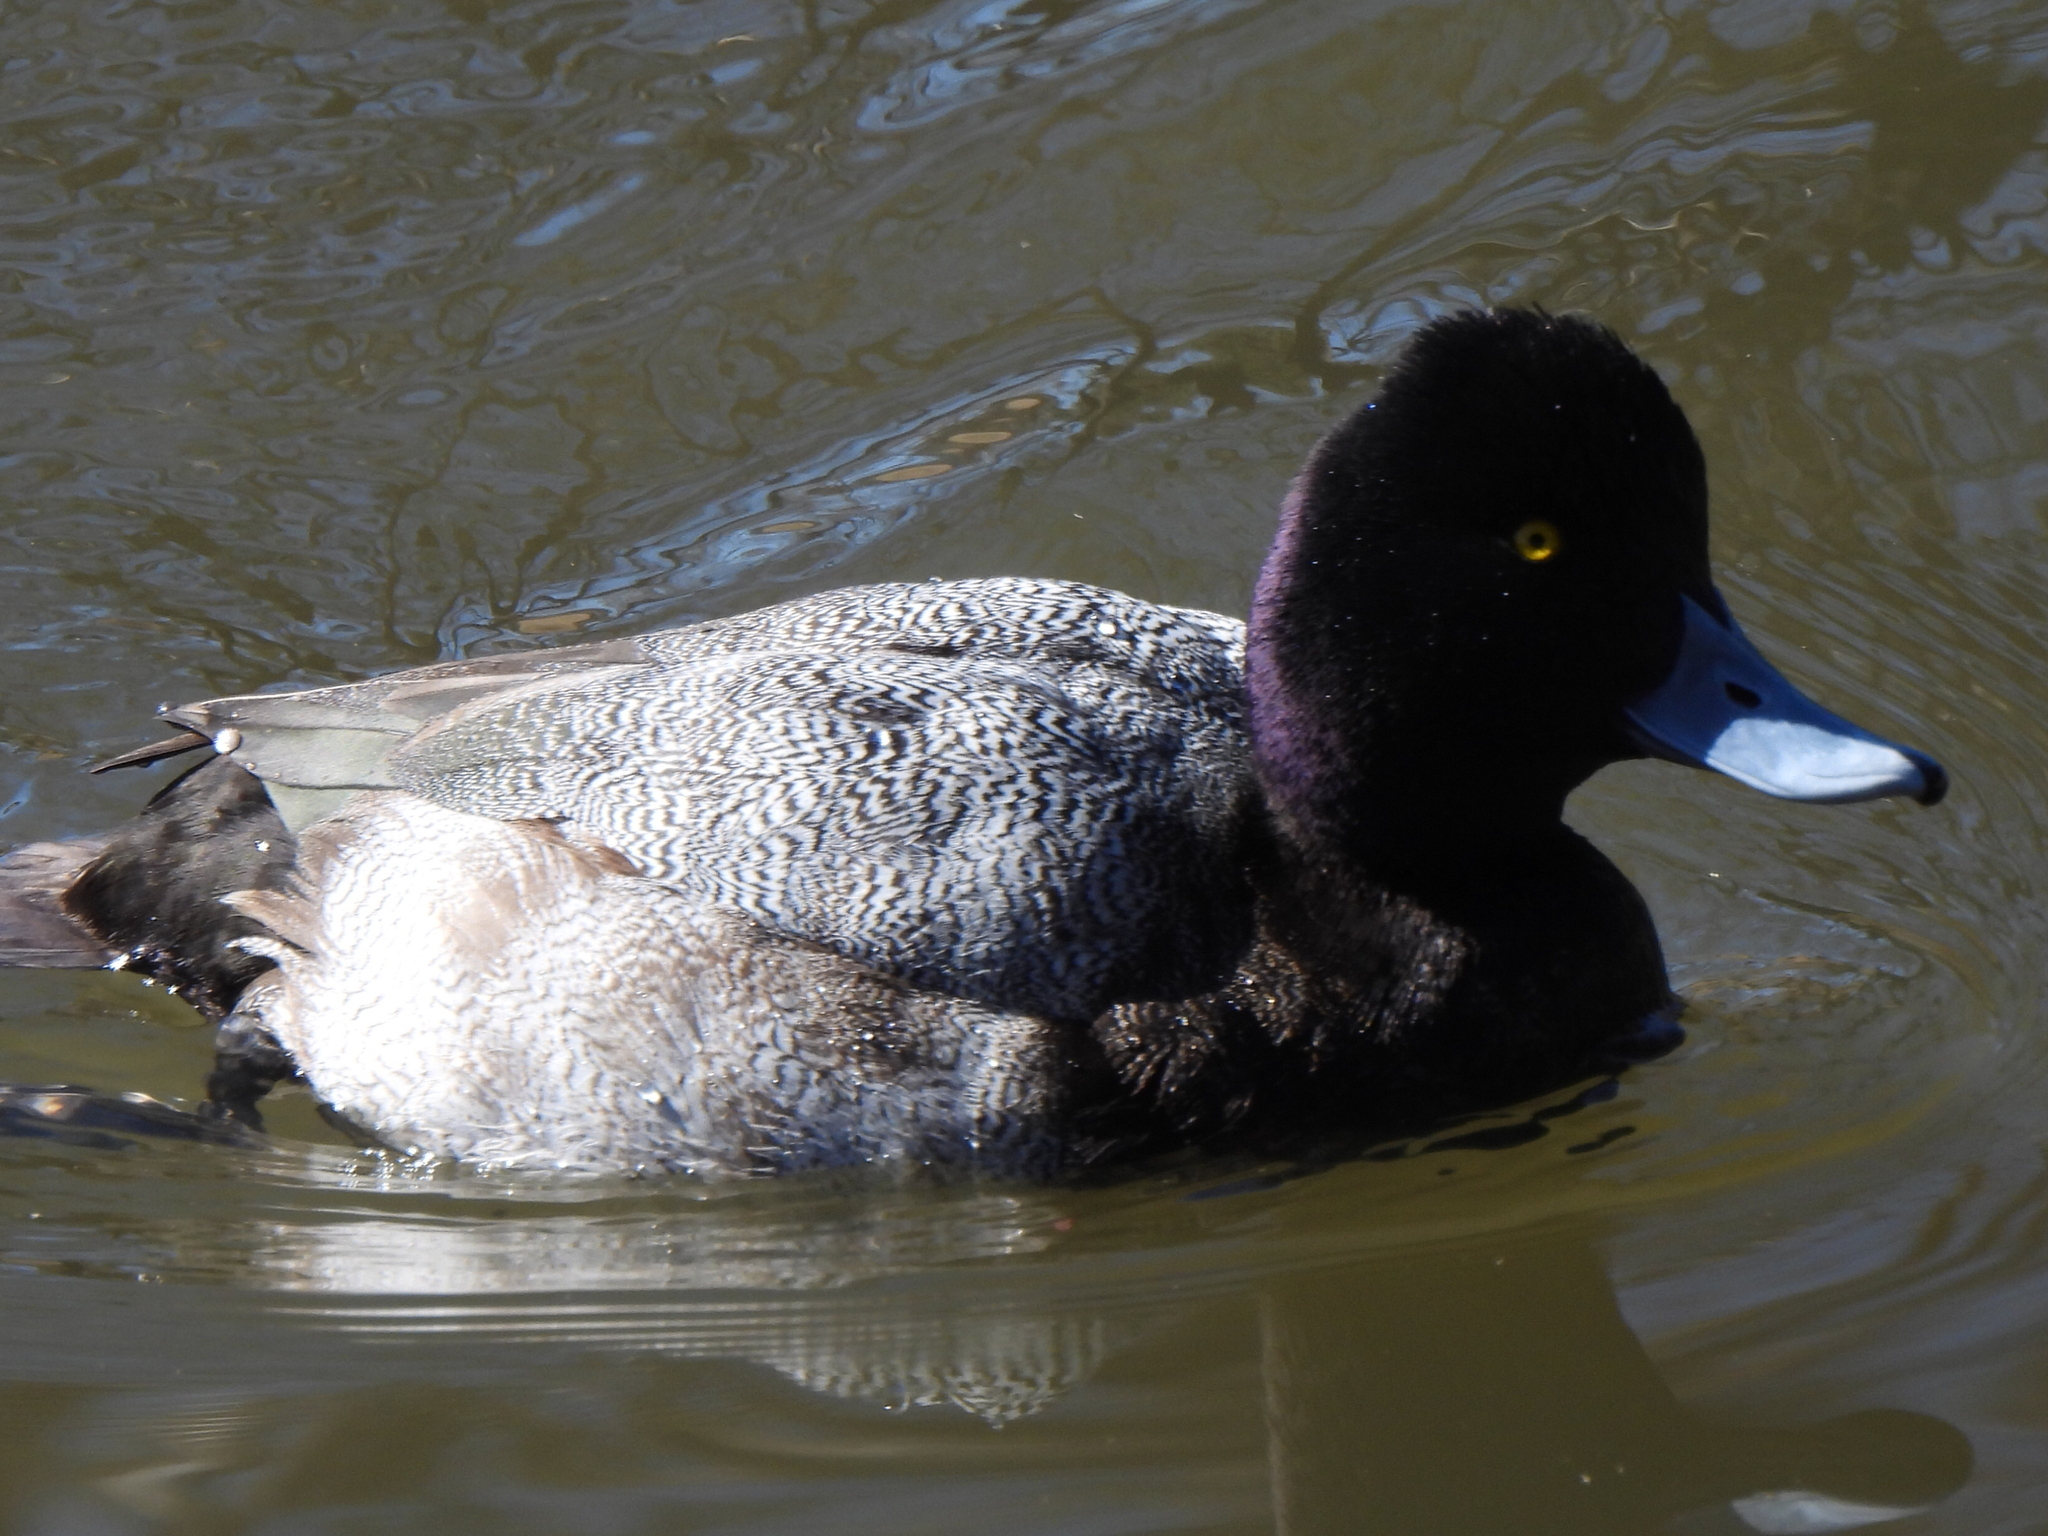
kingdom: Animalia
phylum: Chordata
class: Aves
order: Anseriformes
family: Anatidae
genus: Aythya
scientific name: Aythya affinis
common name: Lesser scaup
